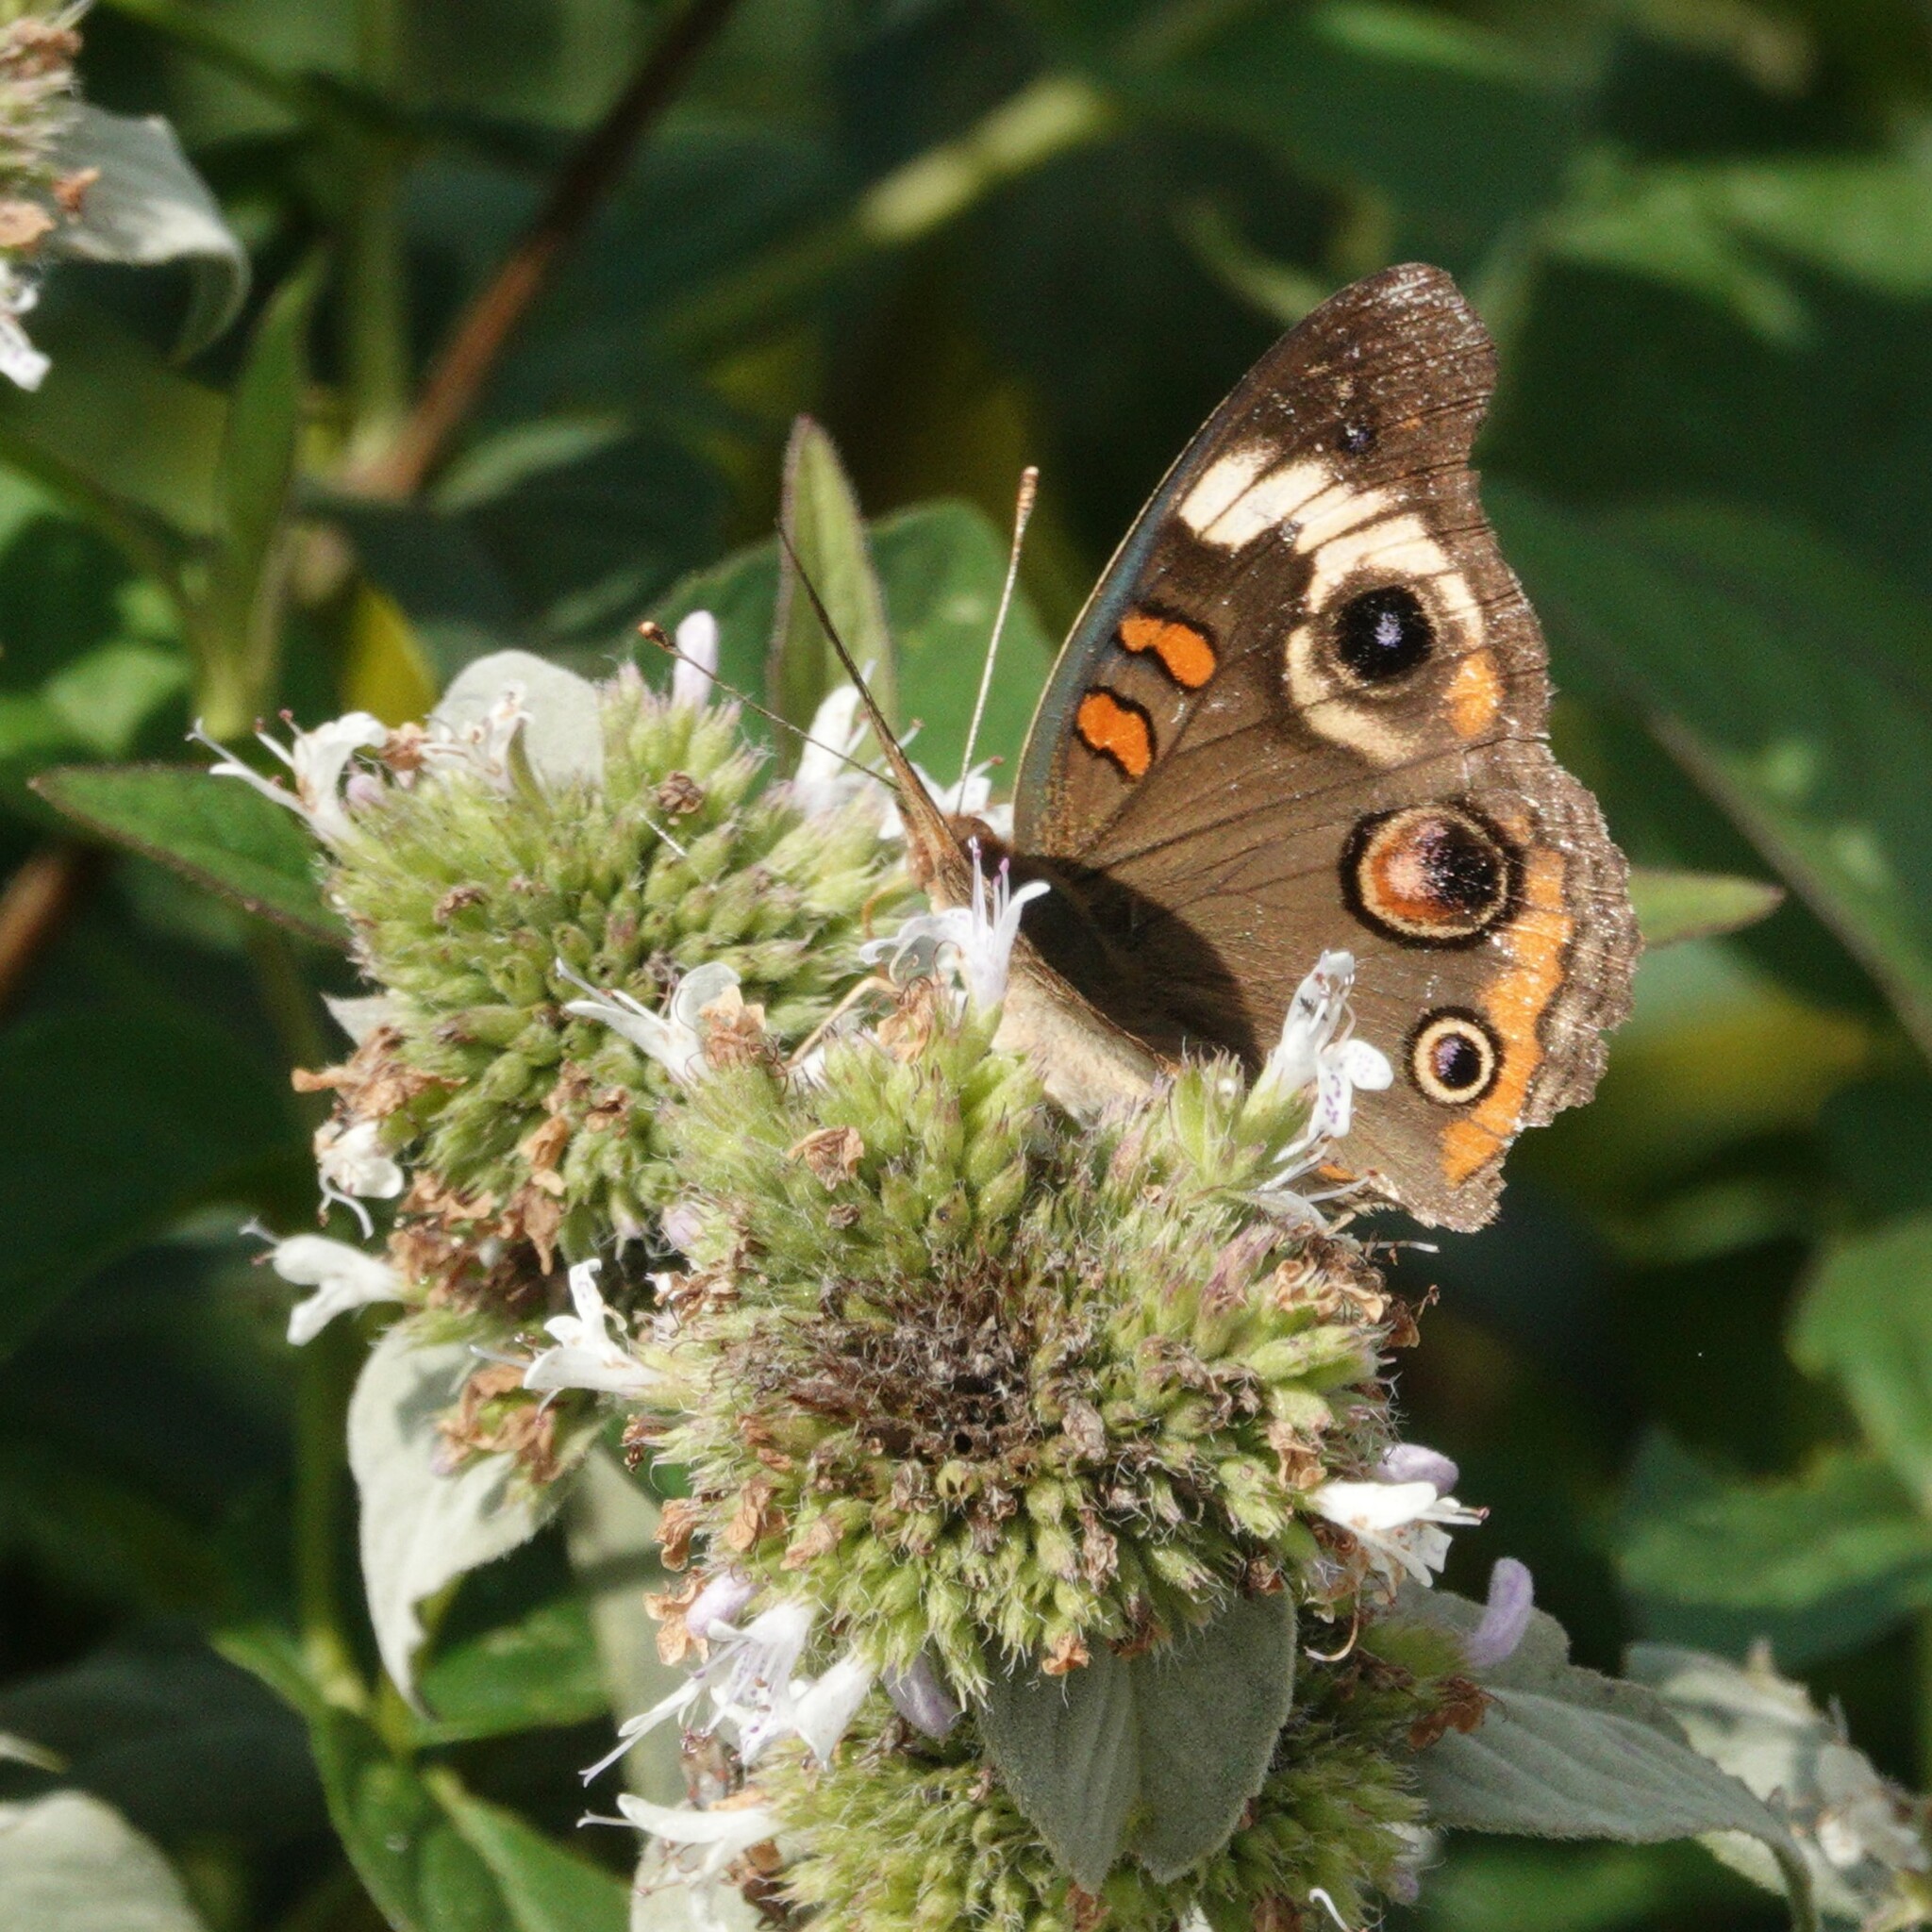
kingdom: Animalia
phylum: Arthropoda
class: Insecta
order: Lepidoptera
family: Nymphalidae
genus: Junonia
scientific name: Junonia coenia
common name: Common buckeye
